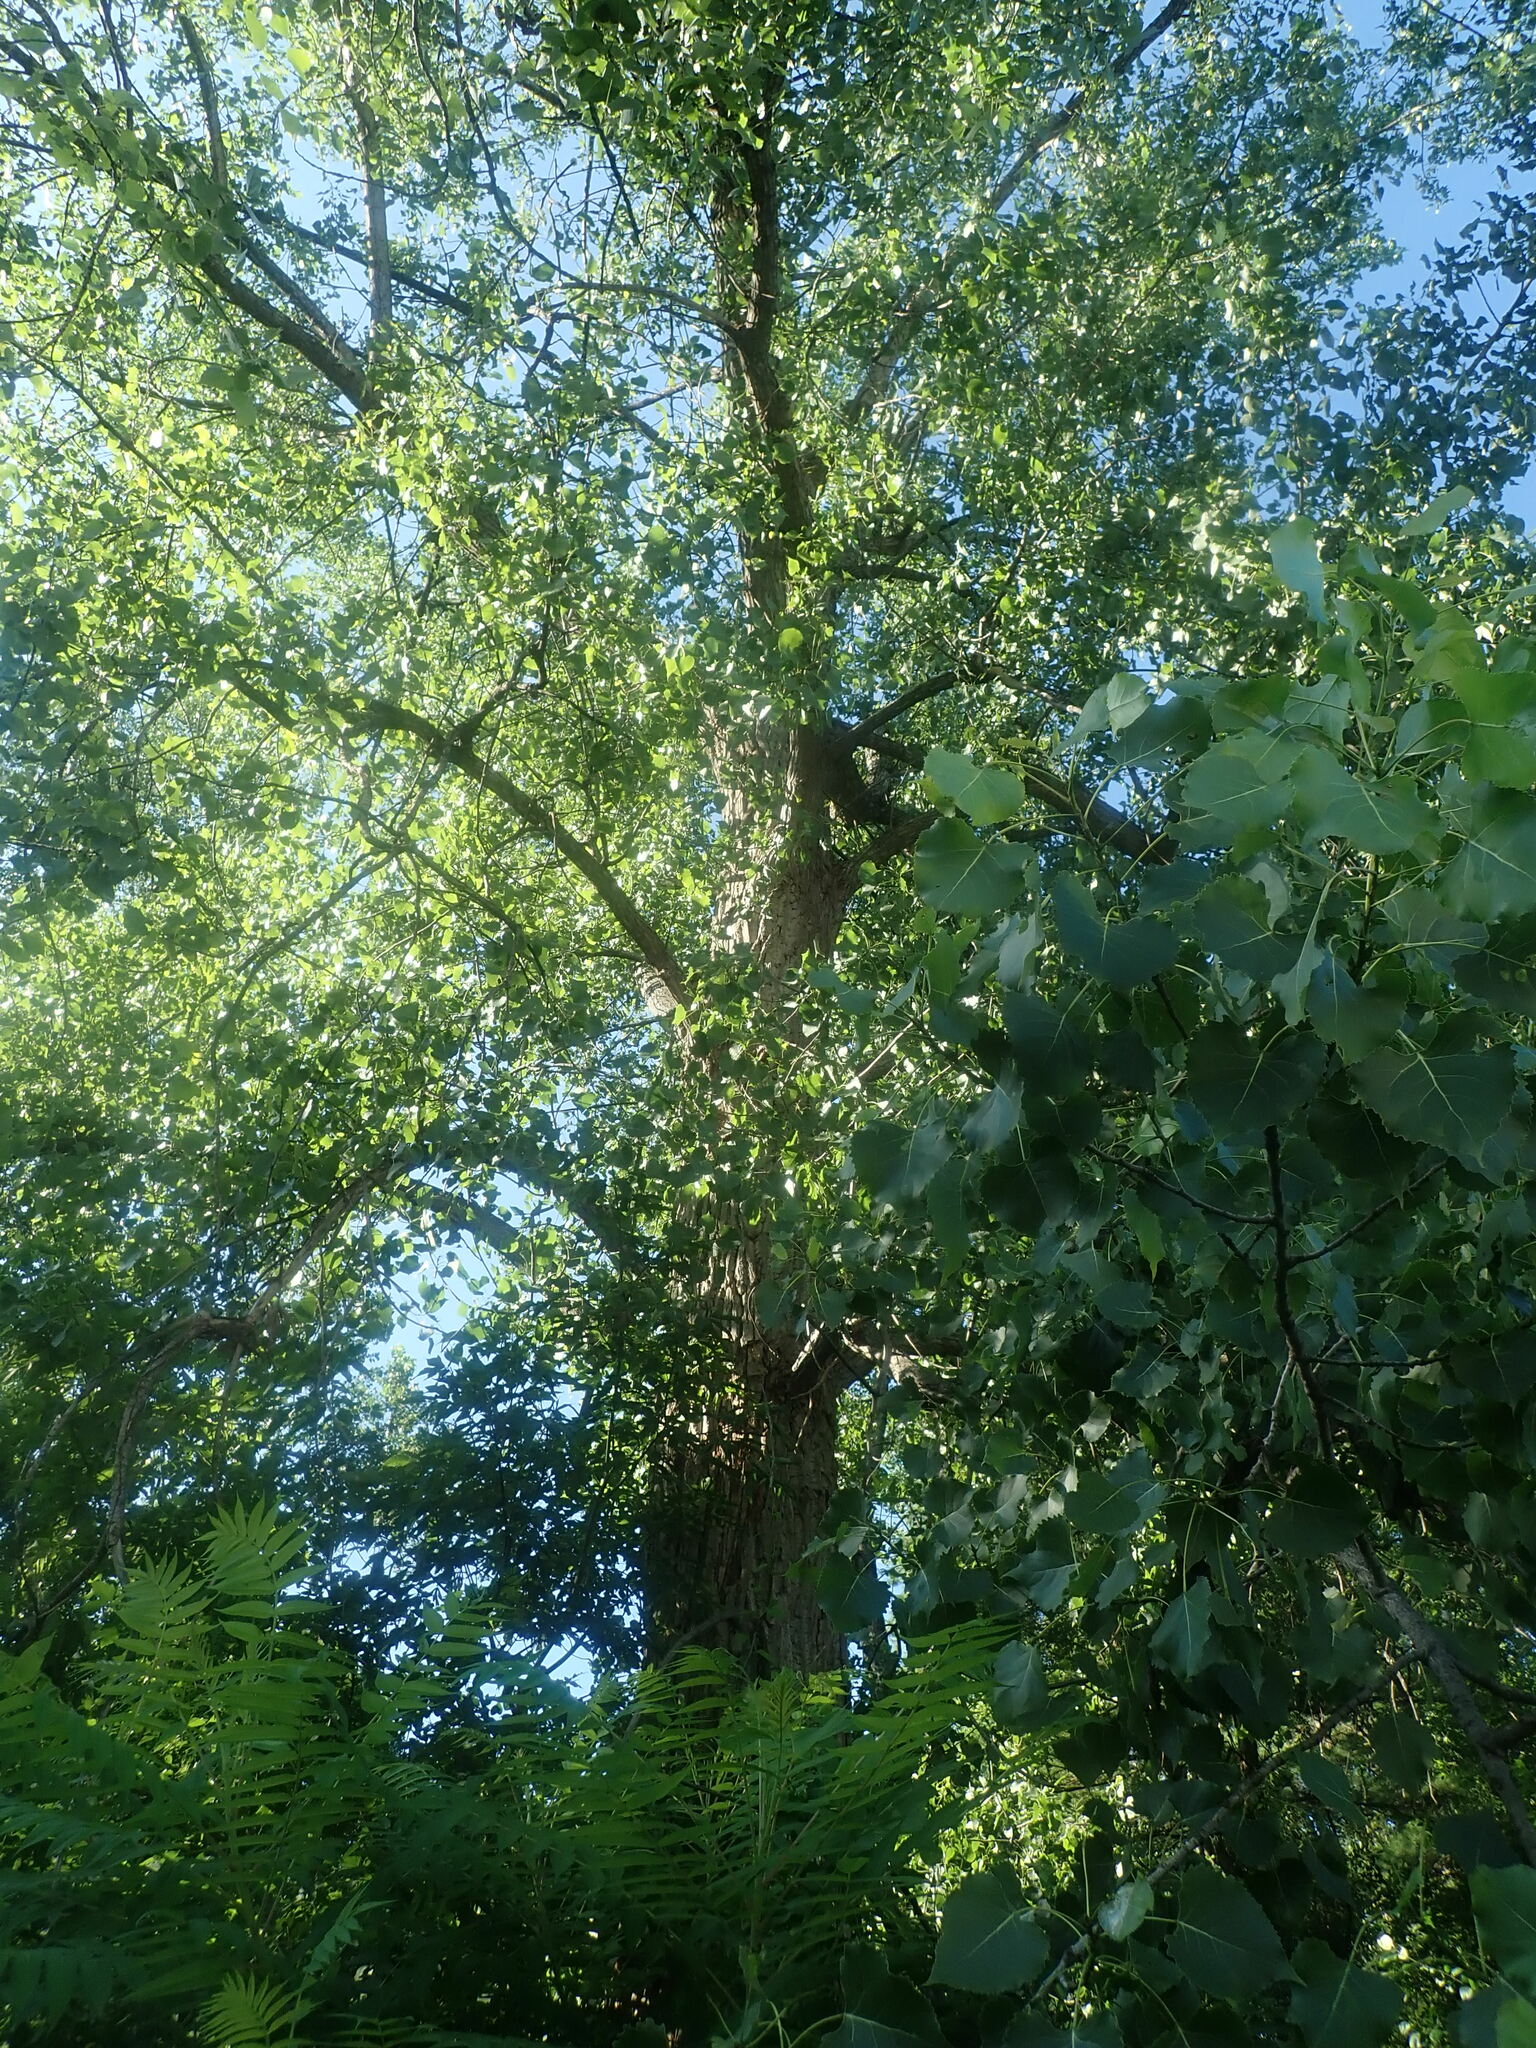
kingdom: Plantae
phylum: Tracheophyta
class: Magnoliopsida
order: Malpighiales
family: Salicaceae
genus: Populus
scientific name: Populus deltoides
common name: Eastern cottonwood
